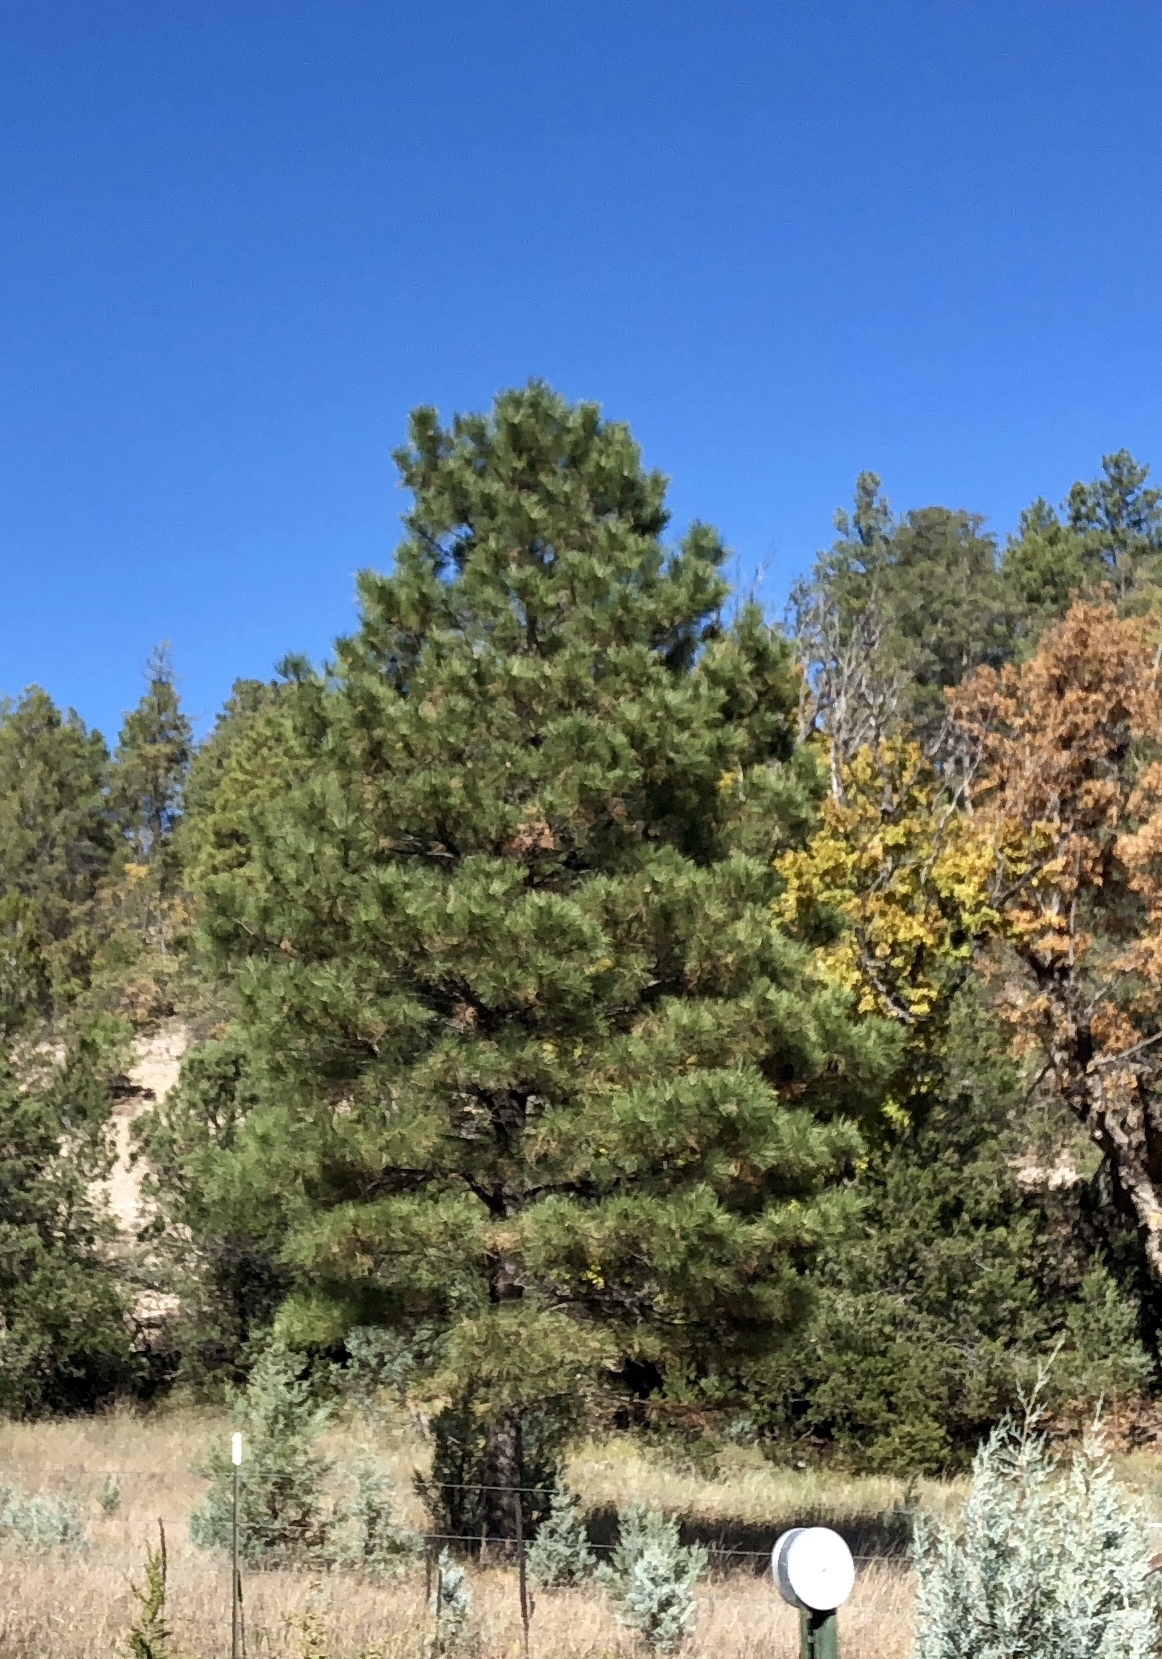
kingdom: Plantae
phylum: Tracheophyta
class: Pinopsida
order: Pinales
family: Pinaceae
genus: Pinus
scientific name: Pinus ponderosa
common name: Western yellow-pine
